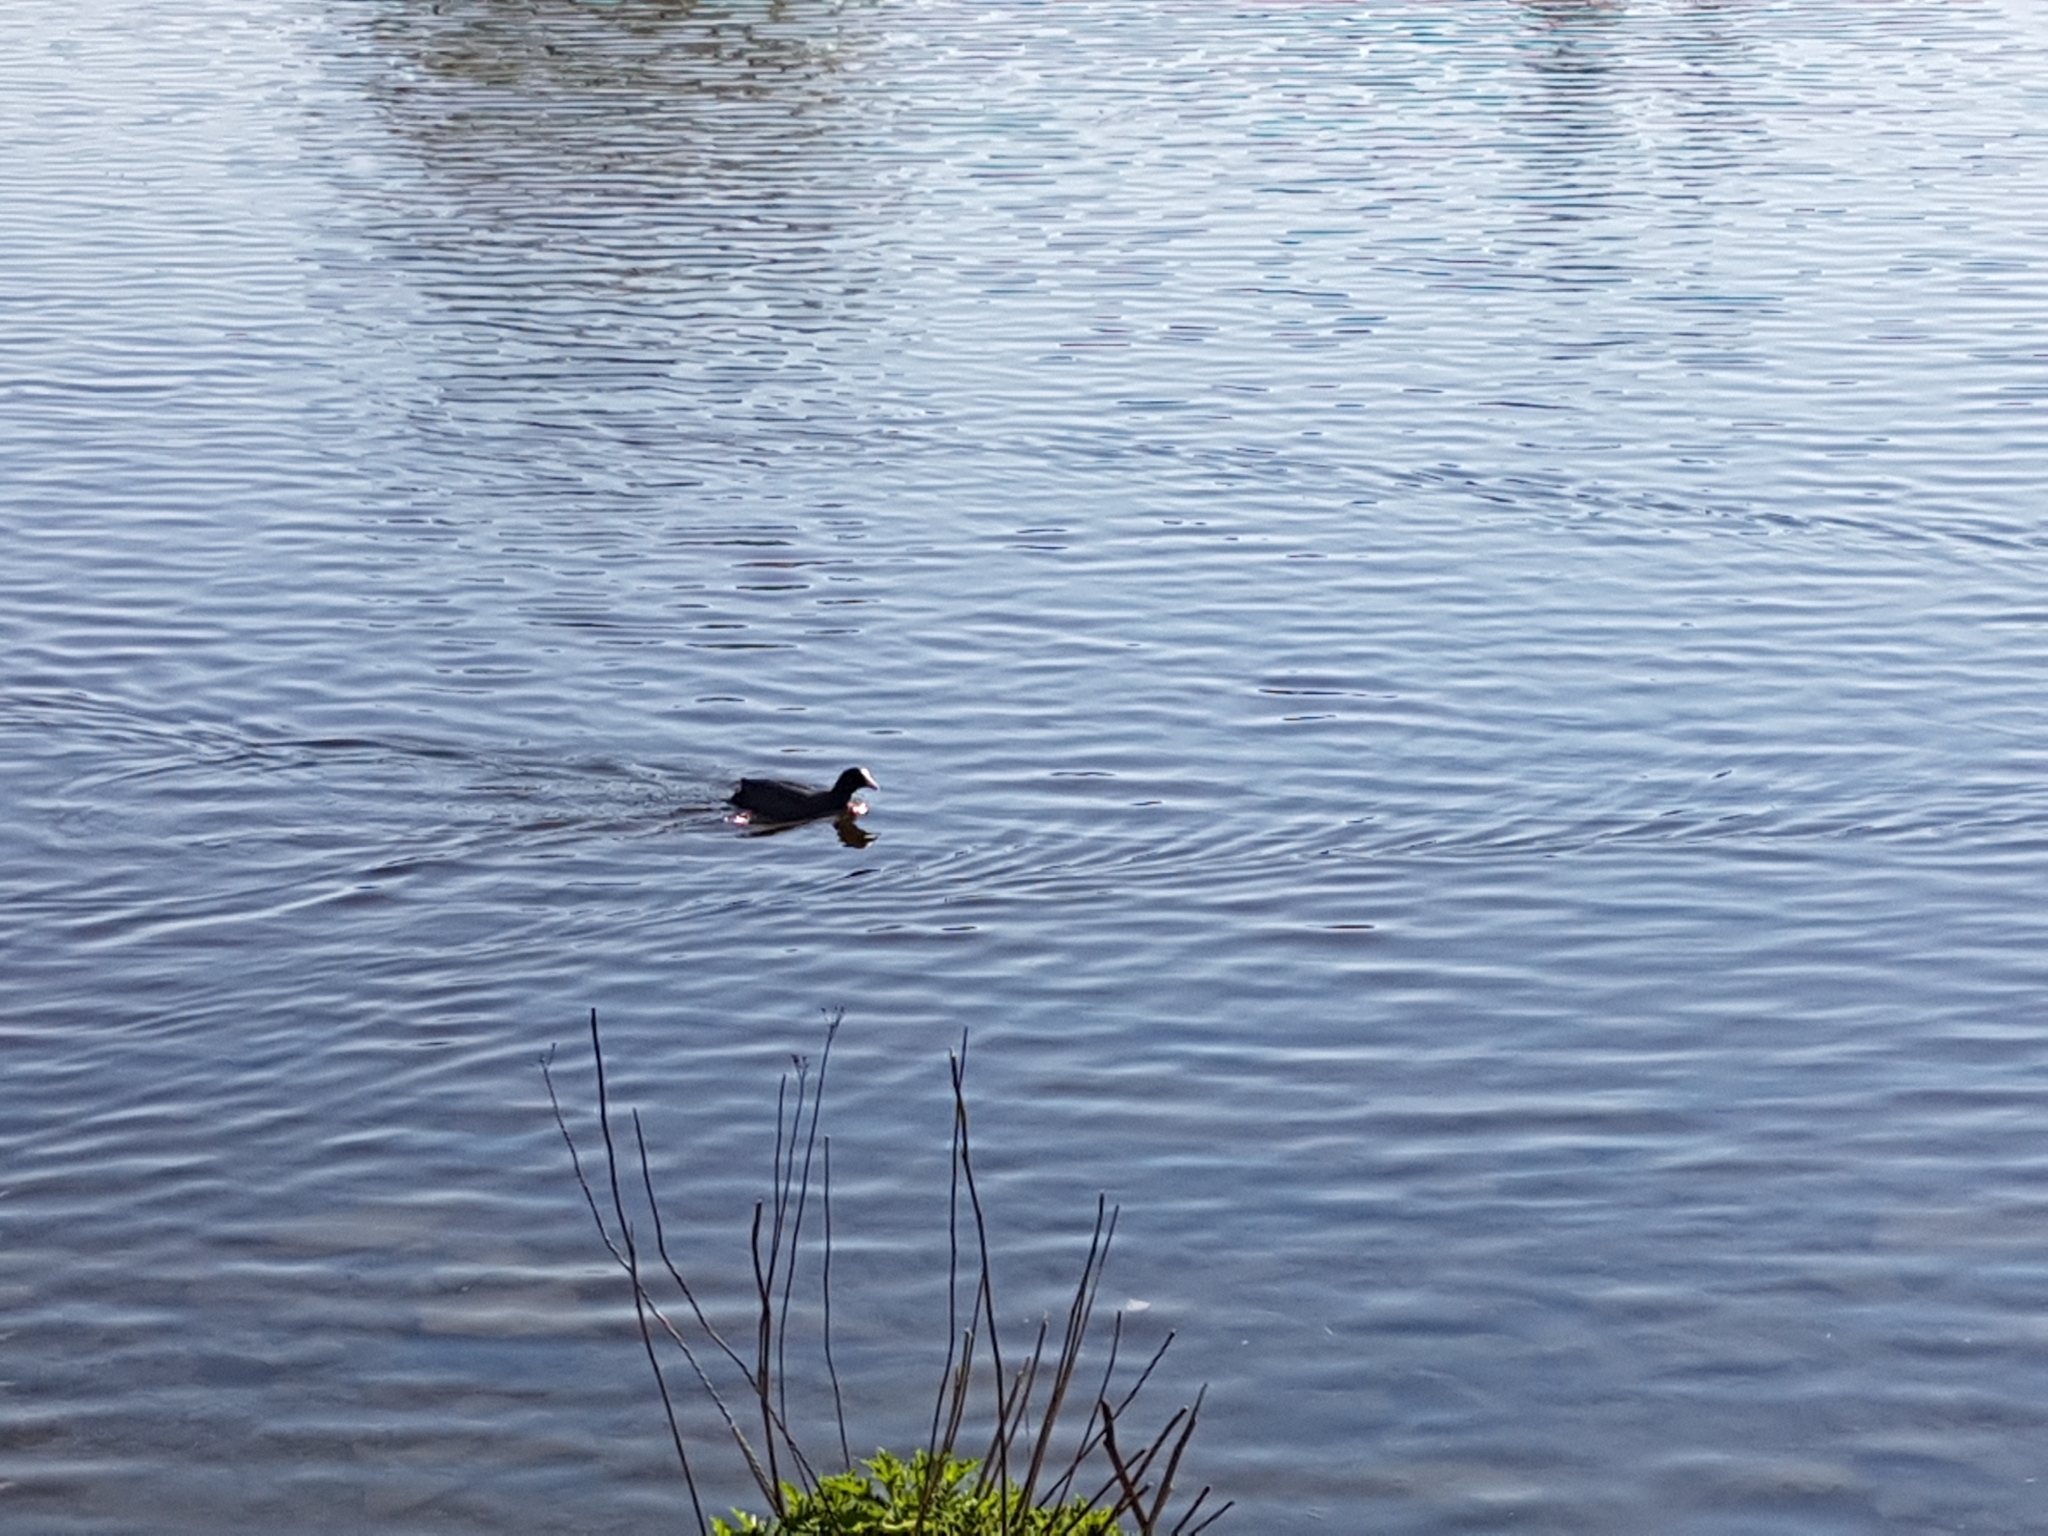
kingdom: Animalia
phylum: Chordata
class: Aves
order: Gruiformes
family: Rallidae
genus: Fulica
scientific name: Fulica atra
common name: Eurasian coot
